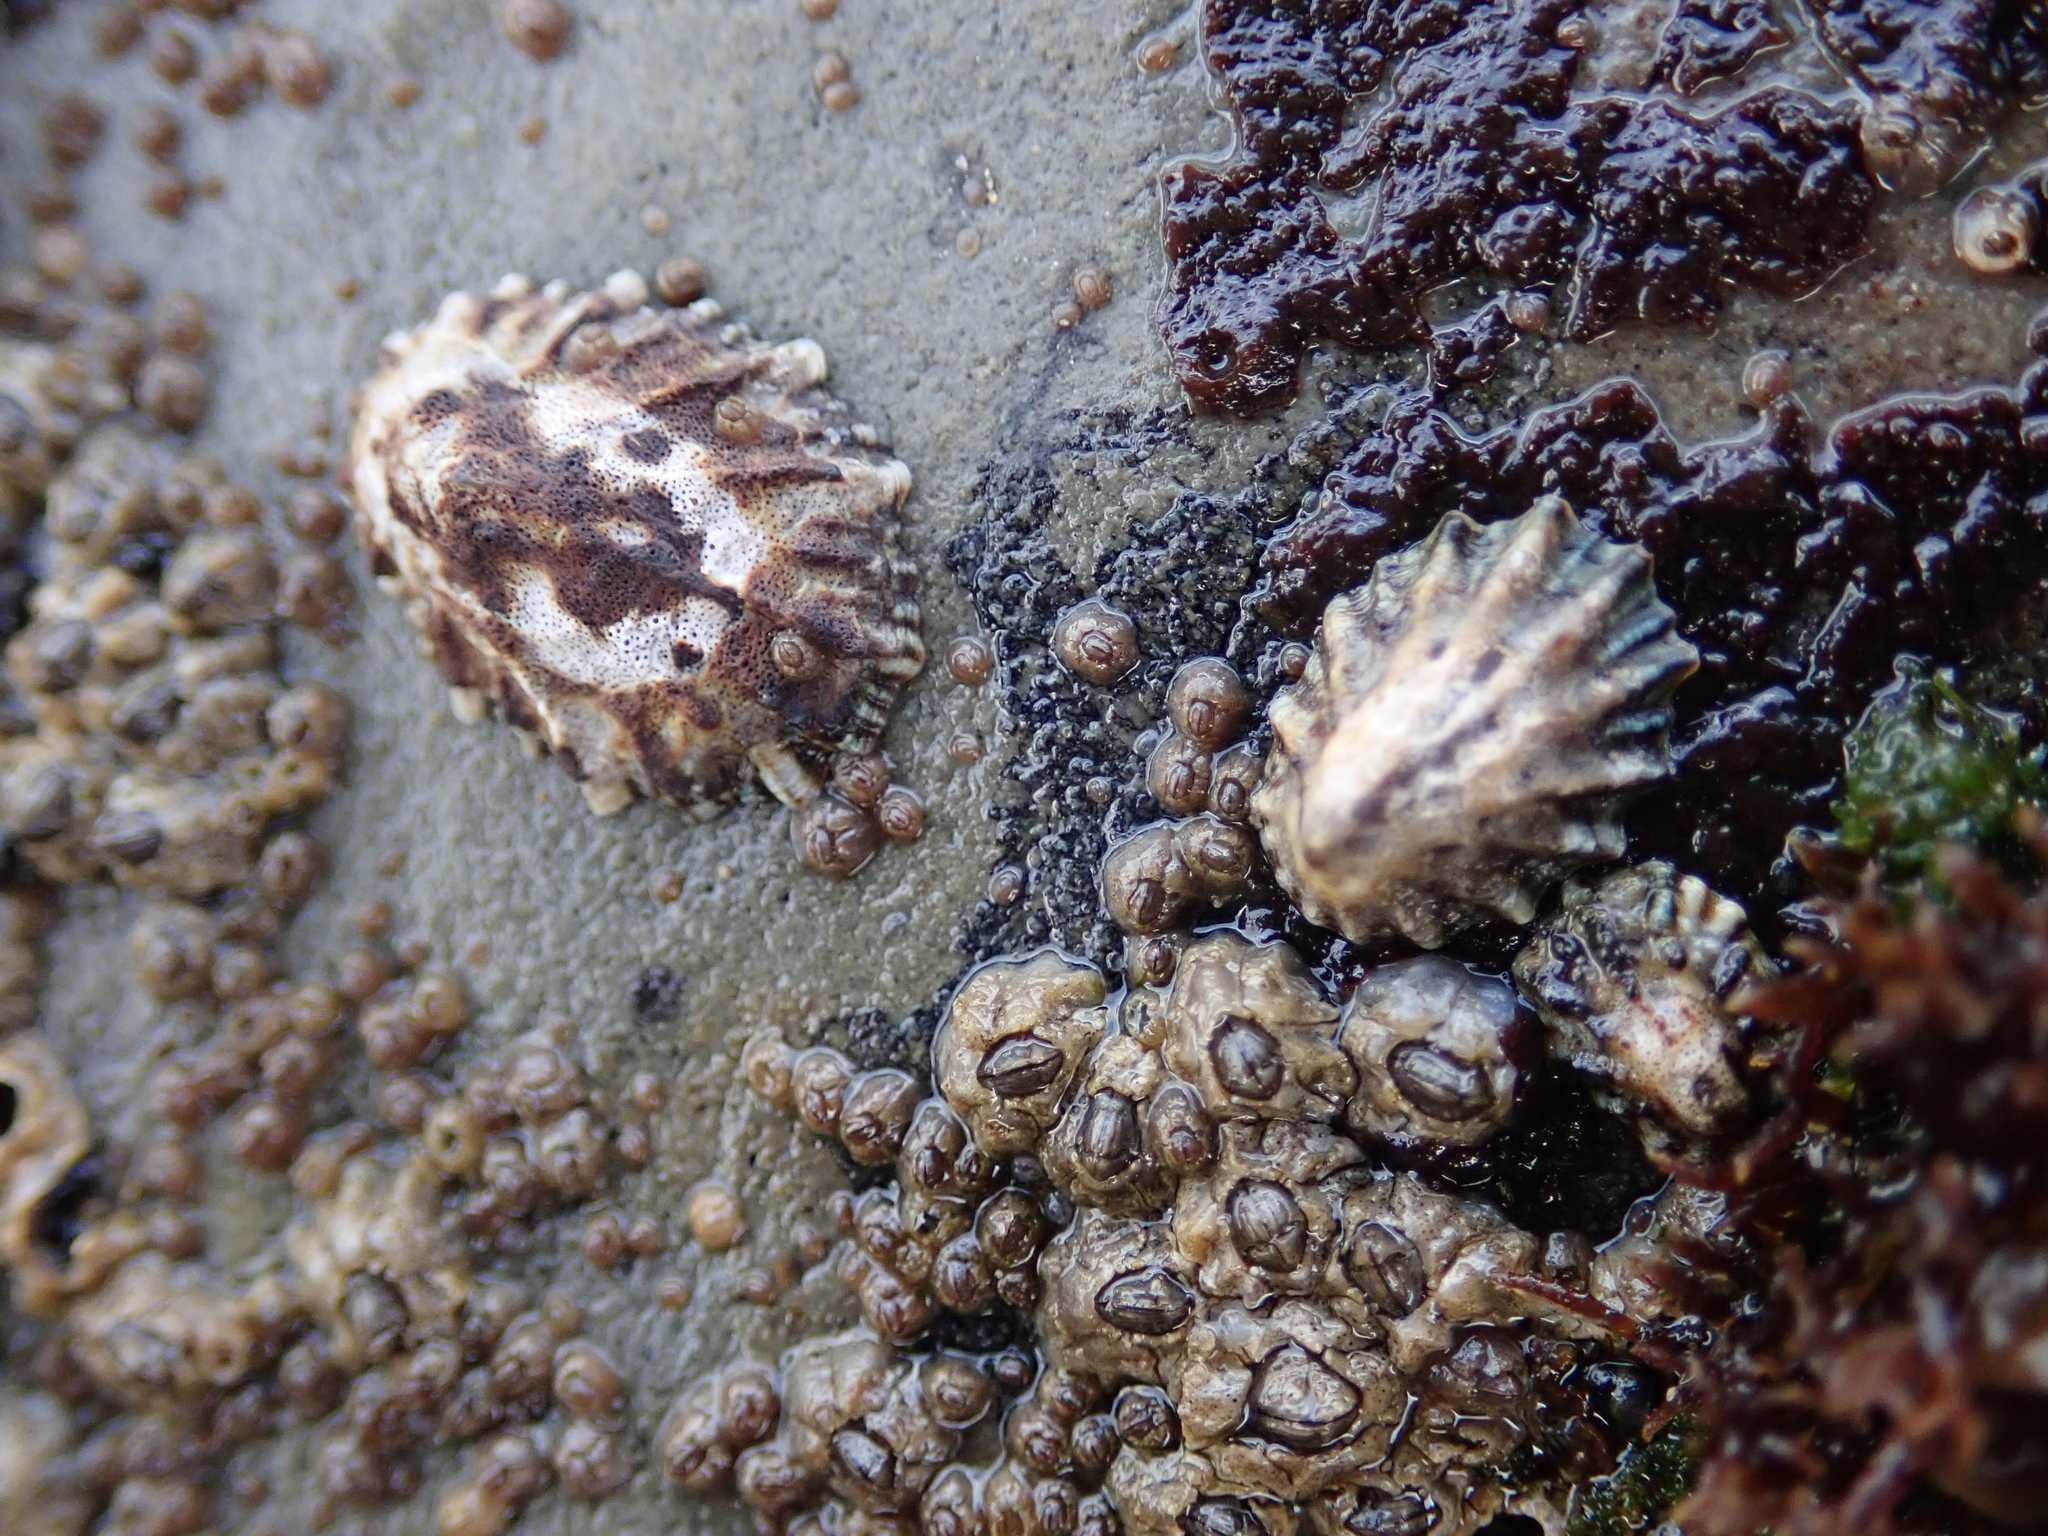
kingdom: Animalia
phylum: Mollusca
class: Gastropoda
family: Lottiidae
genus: Lottia
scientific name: Lottia scabra
